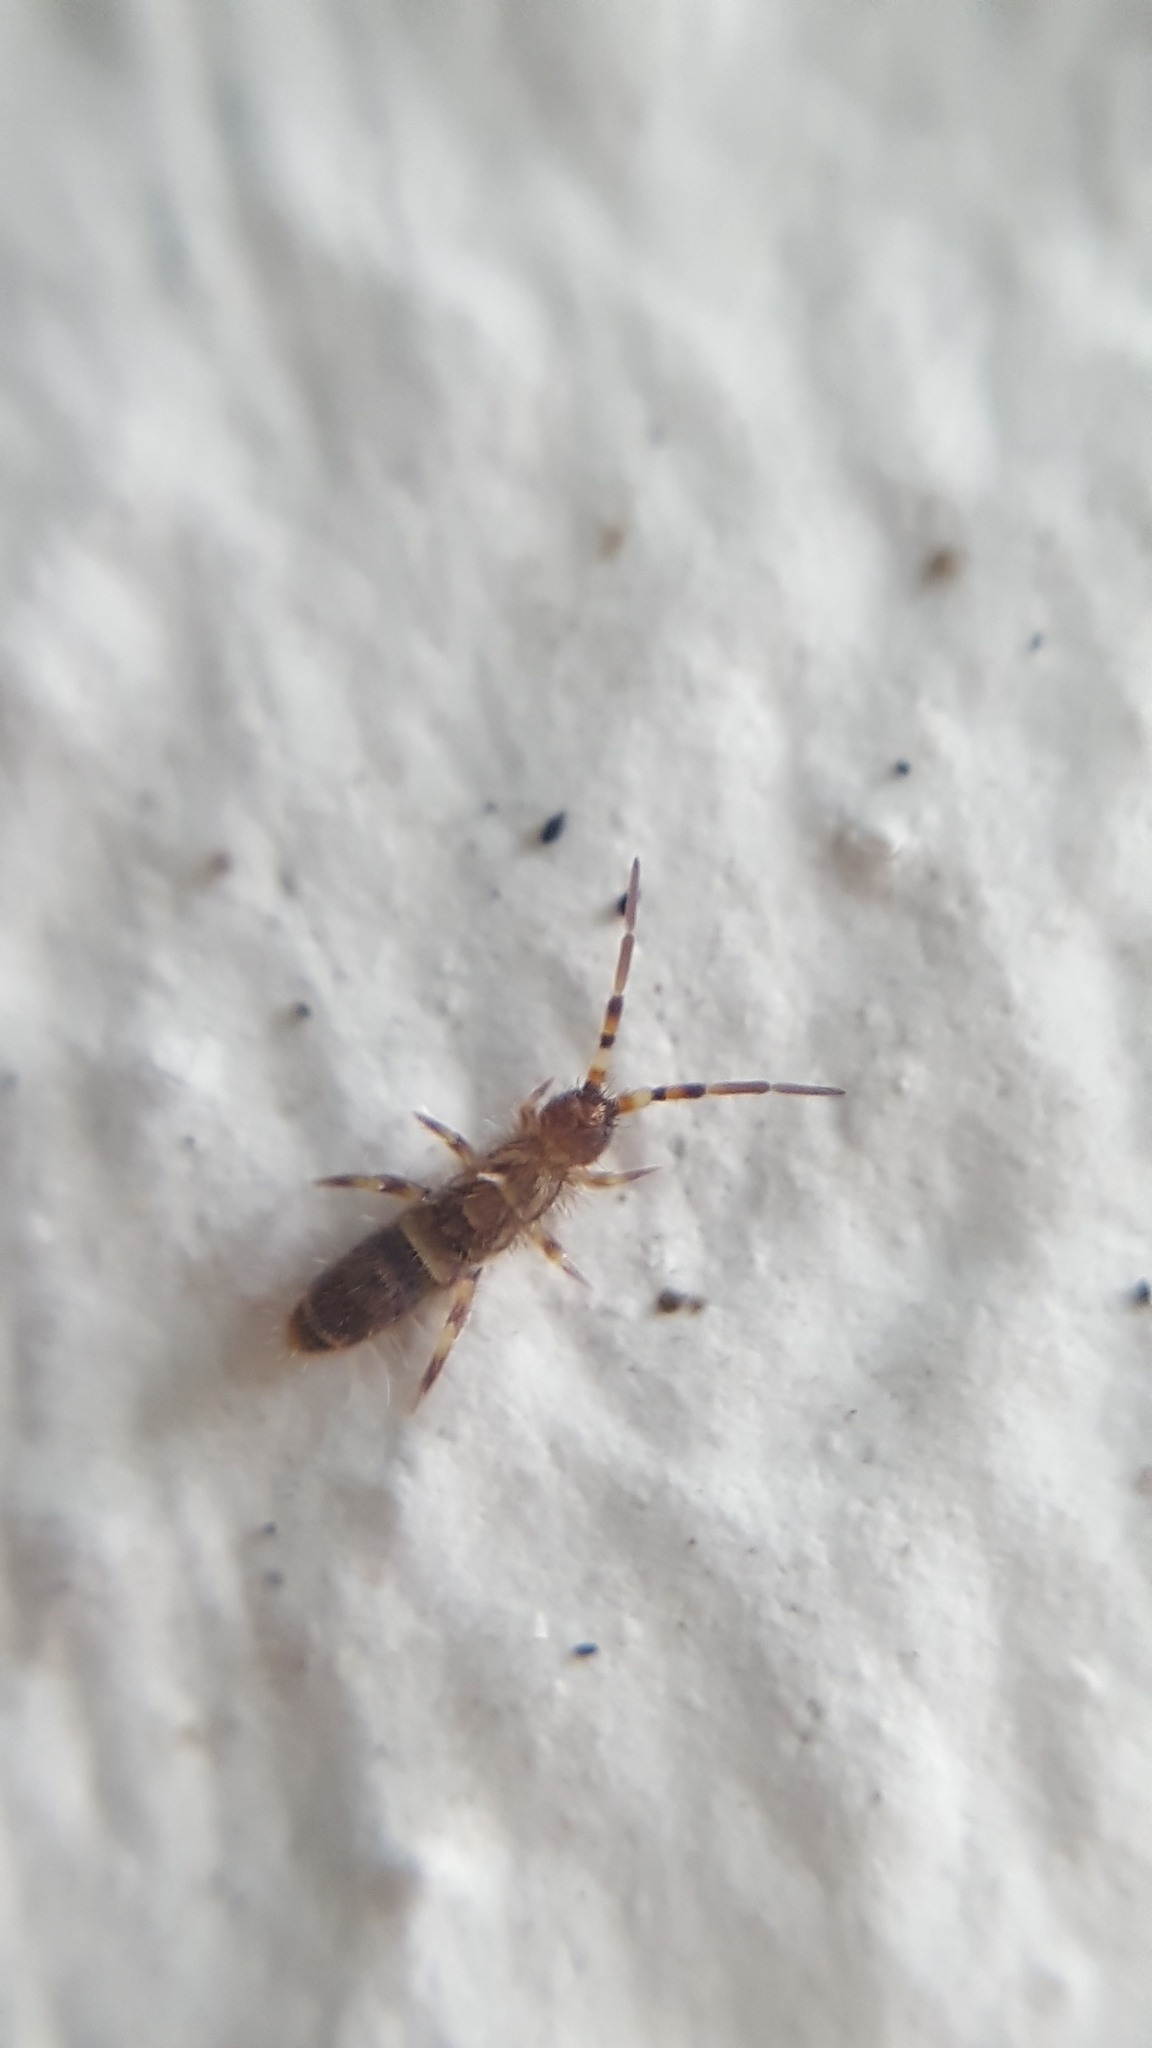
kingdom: Animalia
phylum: Arthropoda
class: Collembola
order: Entomobryomorpha
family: Orchesellidae
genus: Orchesella
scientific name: Orchesella cincta
